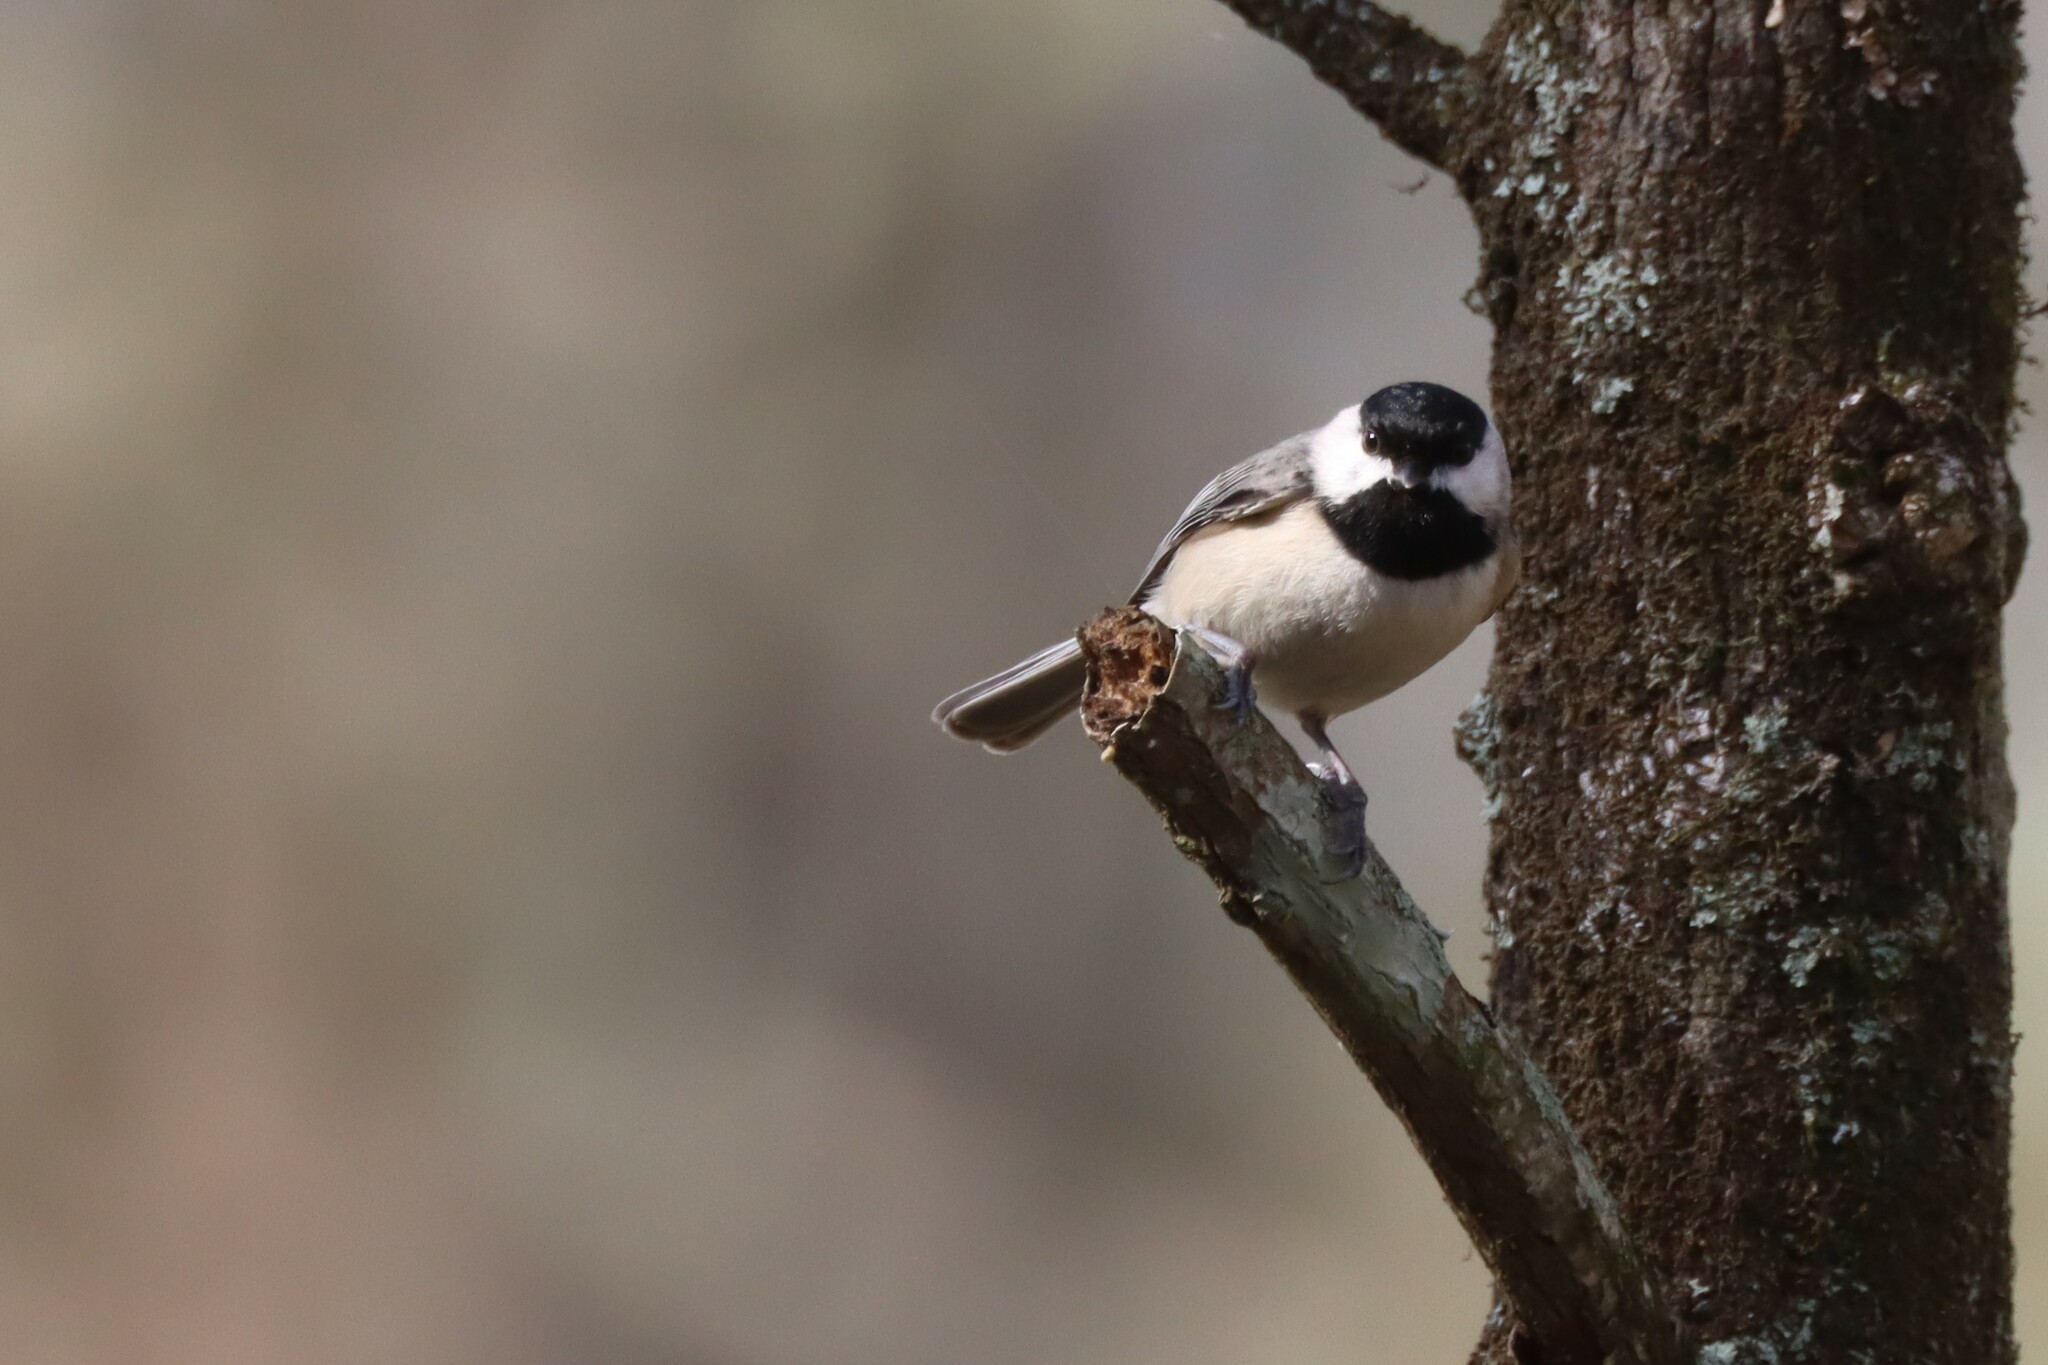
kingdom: Animalia
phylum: Chordata
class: Aves
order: Passeriformes
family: Paridae
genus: Poecile
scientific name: Poecile carolinensis
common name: Carolina chickadee
